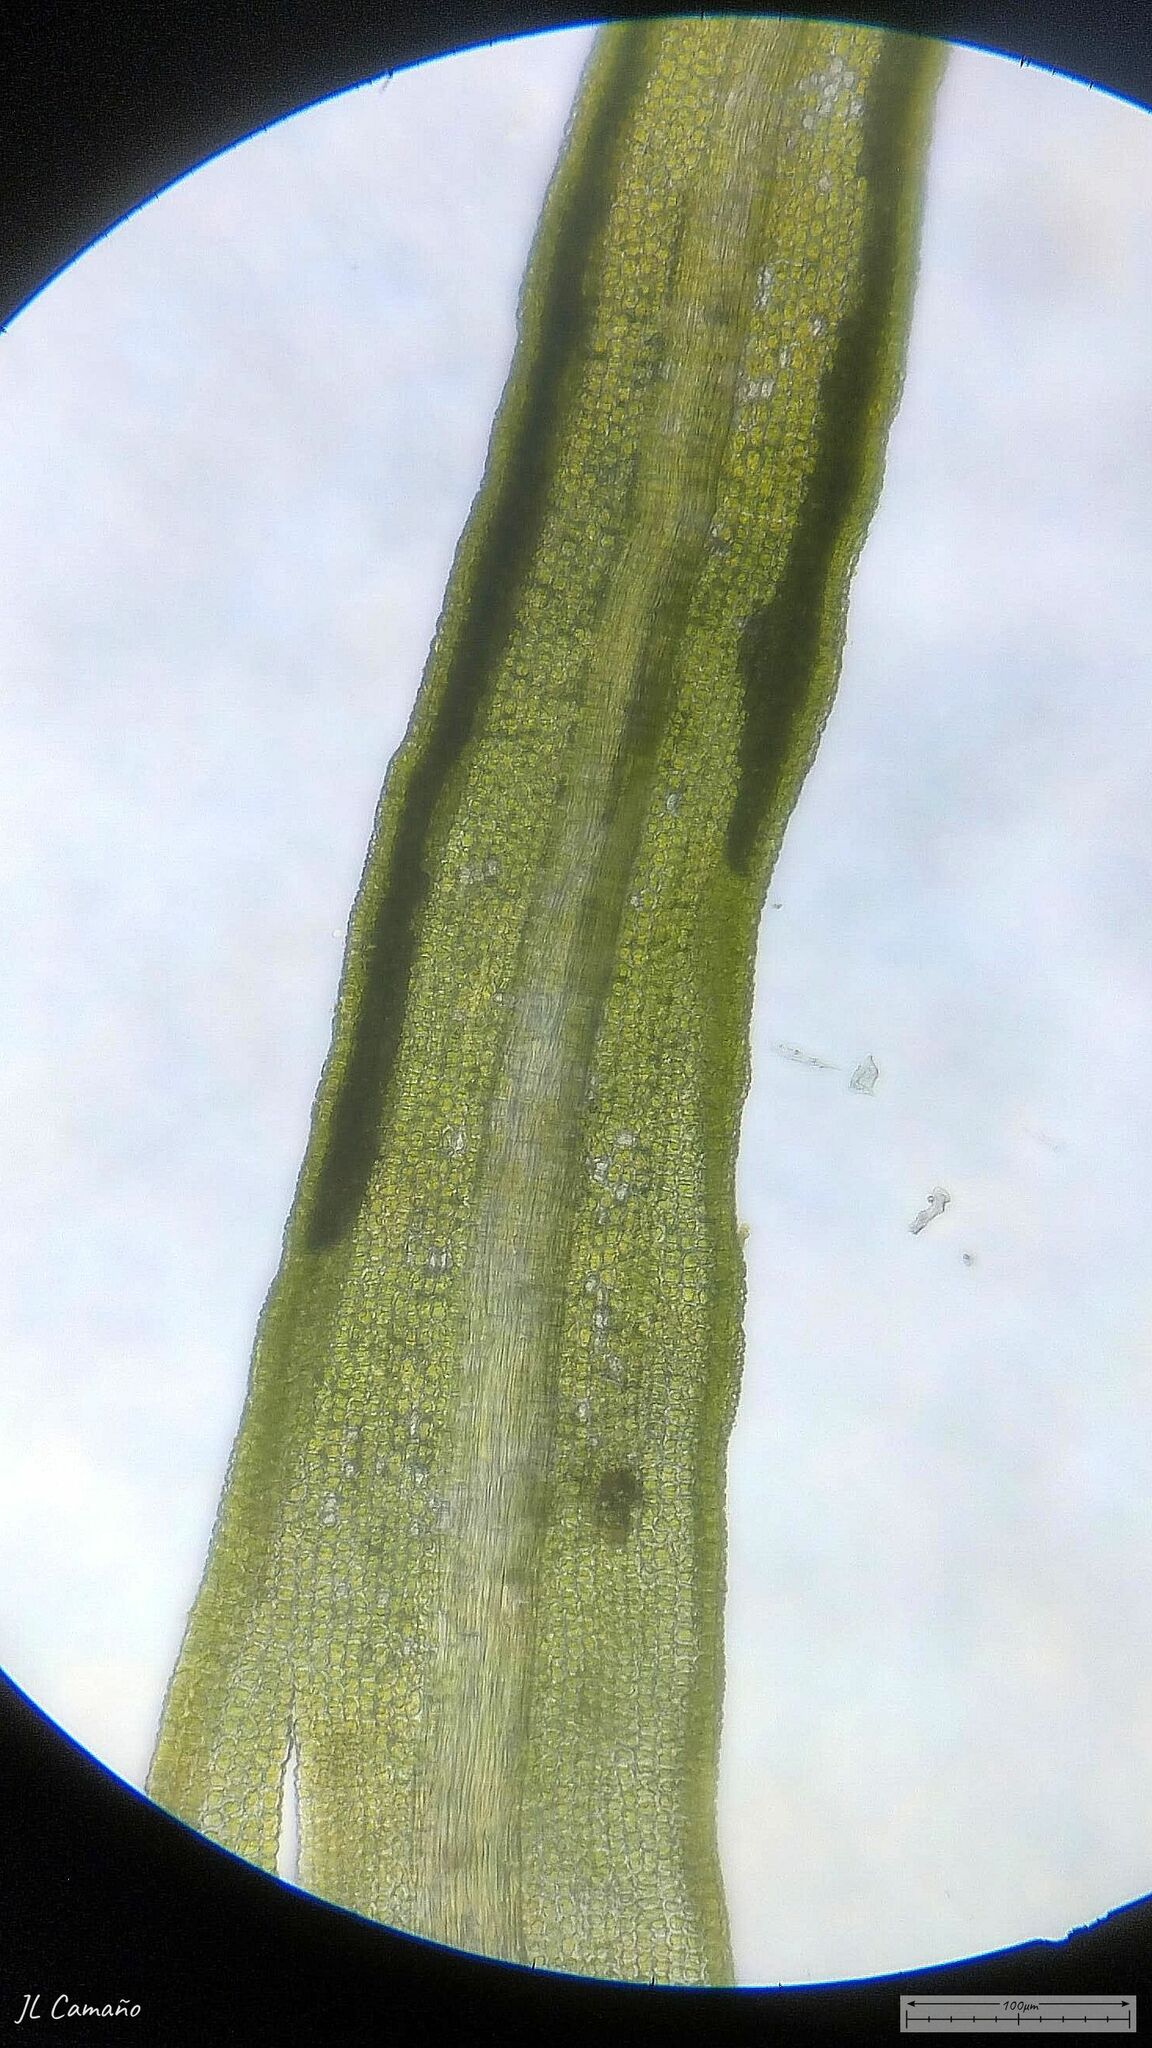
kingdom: Plantae
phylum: Bryophyta
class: Bryopsida
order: Pottiales
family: Pottiaceae
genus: Weissia
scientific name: Weissia controversa
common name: Green-tufted stubble moss
